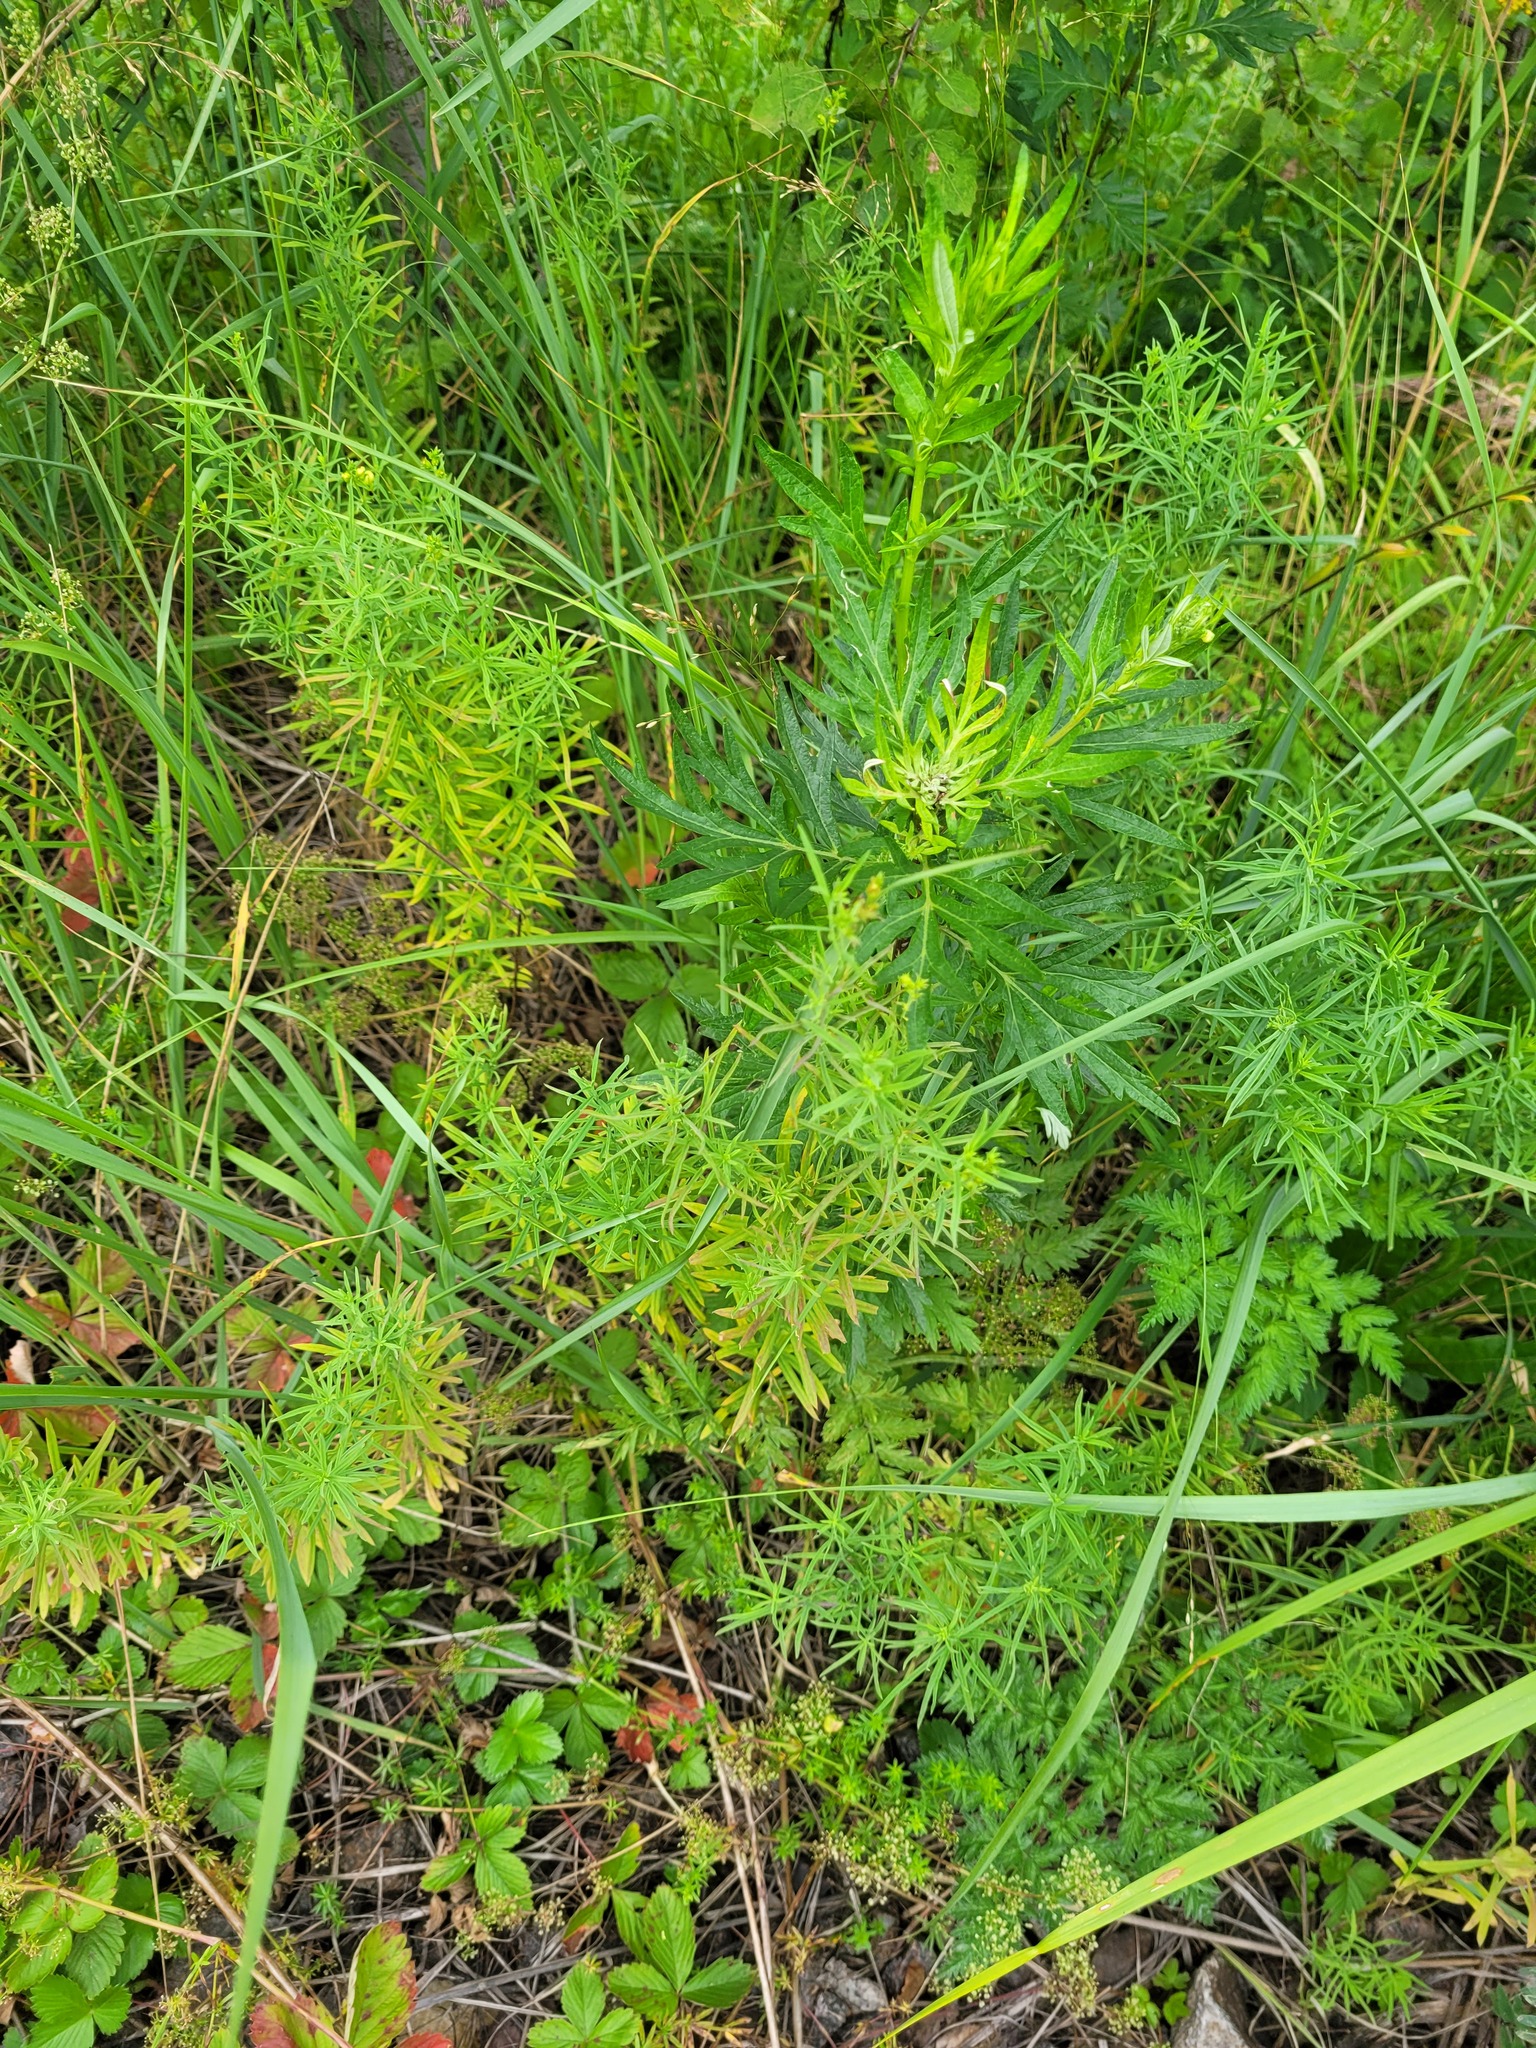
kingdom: Plantae
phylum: Tracheophyta
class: Magnoliopsida
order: Lamiales
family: Plantaginaceae
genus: Linaria
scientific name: Linaria vulgaris
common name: Butter and eggs
